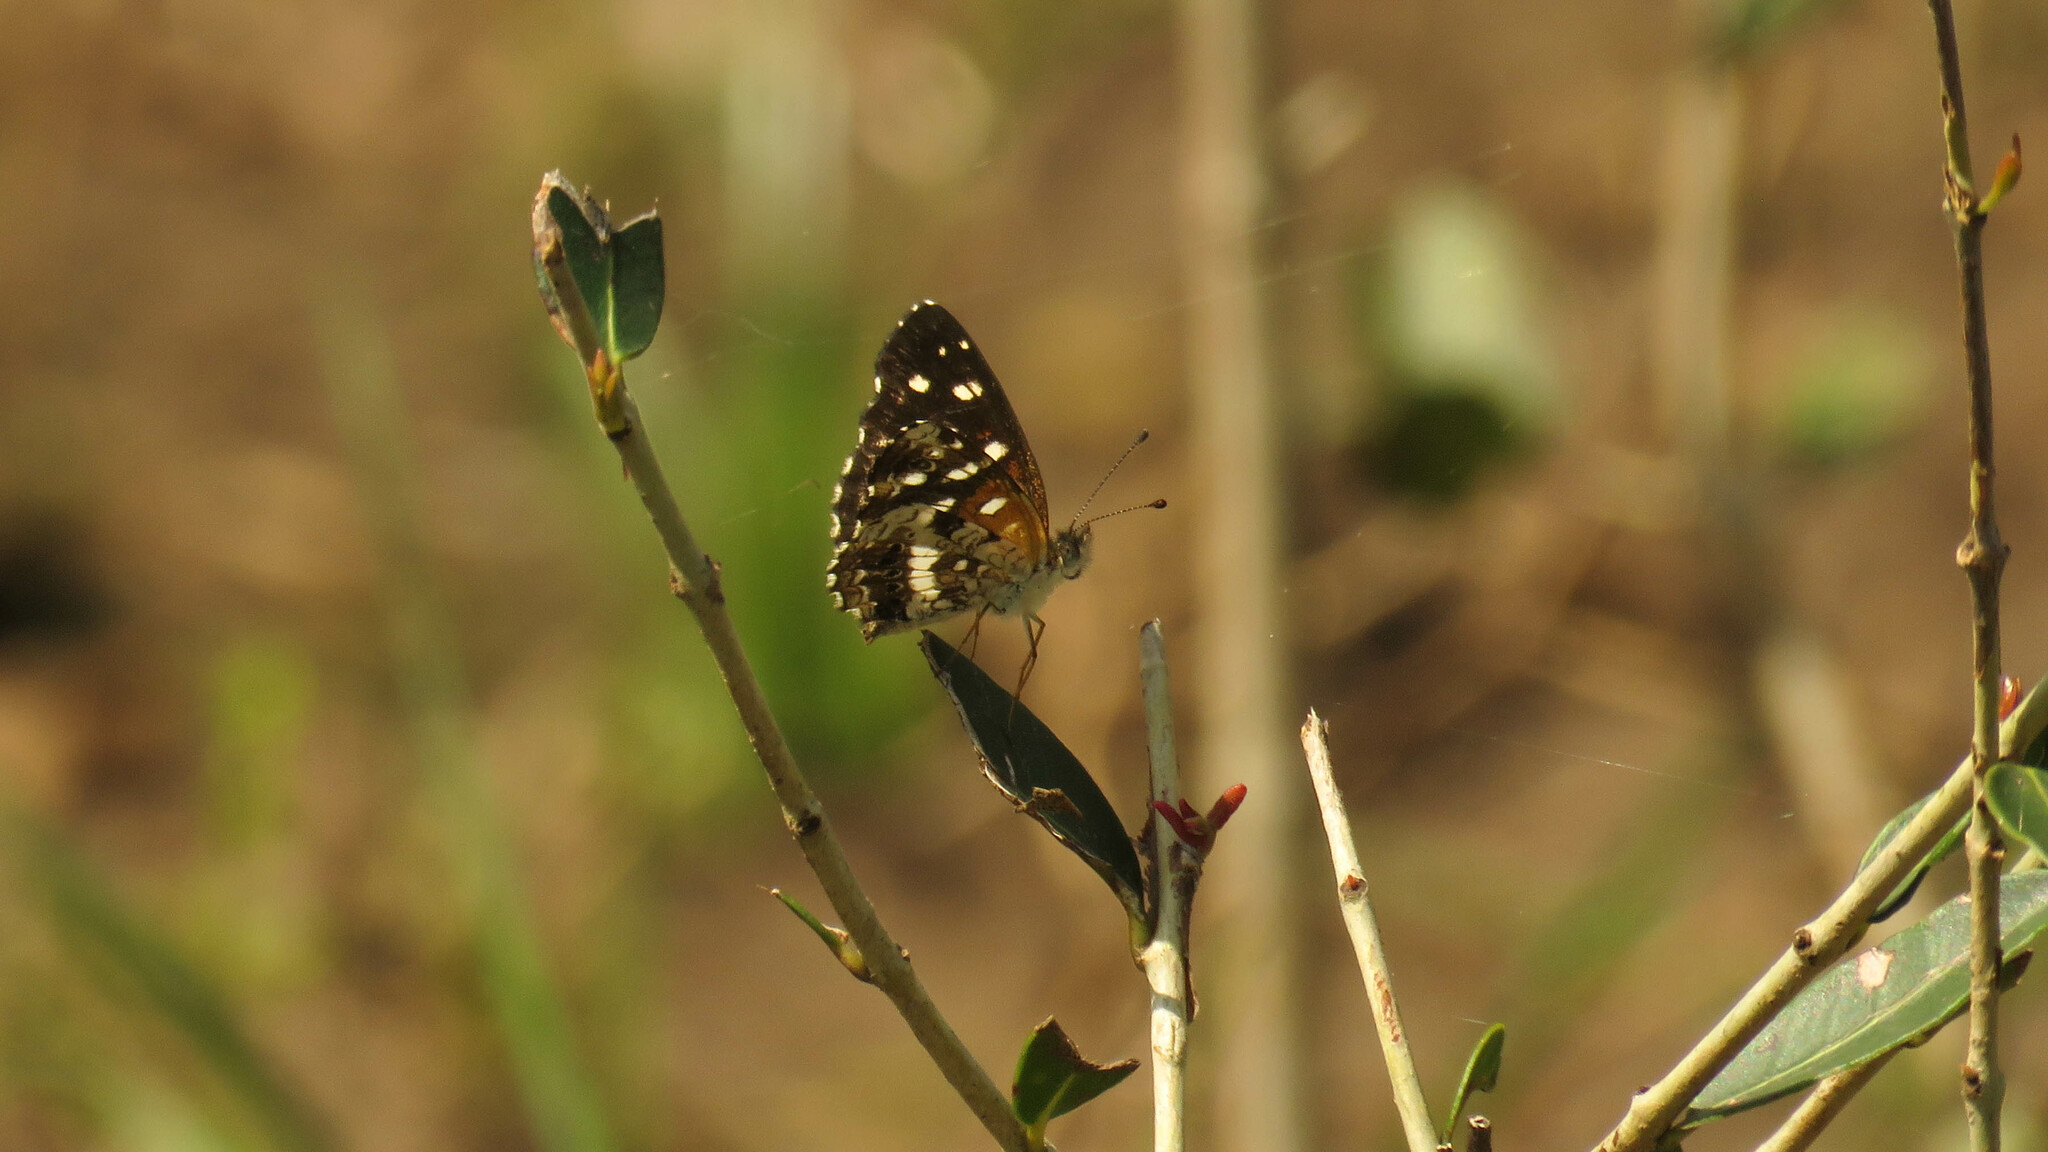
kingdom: Animalia
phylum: Arthropoda
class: Insecta
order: Lepidoptera
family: Nymphalidae
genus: Ortilia
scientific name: Ortilia ithra
